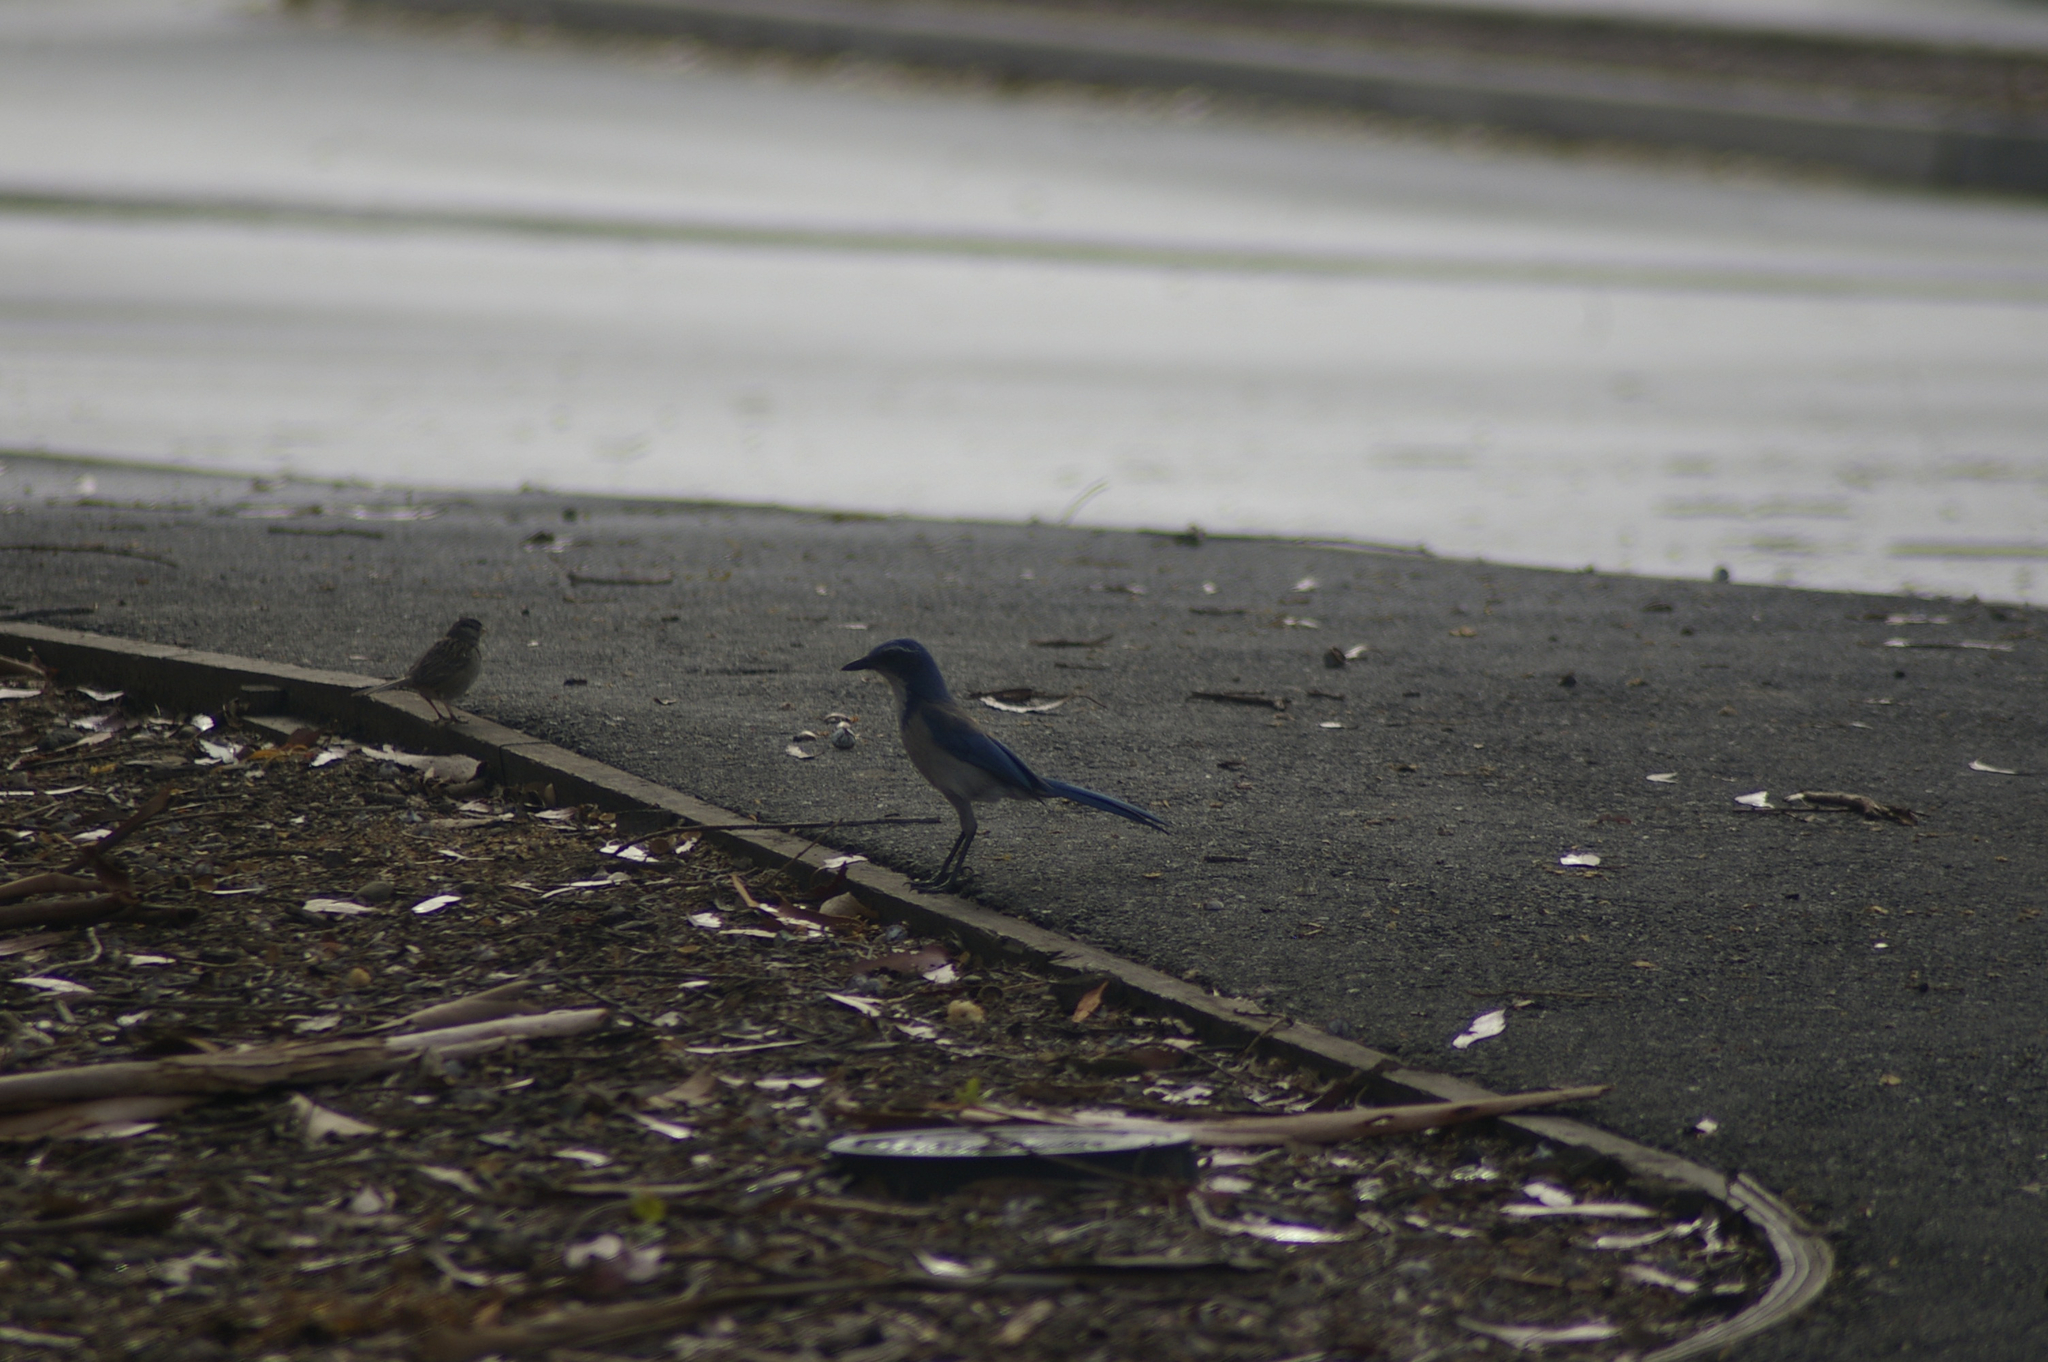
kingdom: Animalia
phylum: Chordata
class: Aves
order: Passeriformes
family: Corvidae
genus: Aphelocoma
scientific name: Aphelocoma californica
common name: California scrub-jay
